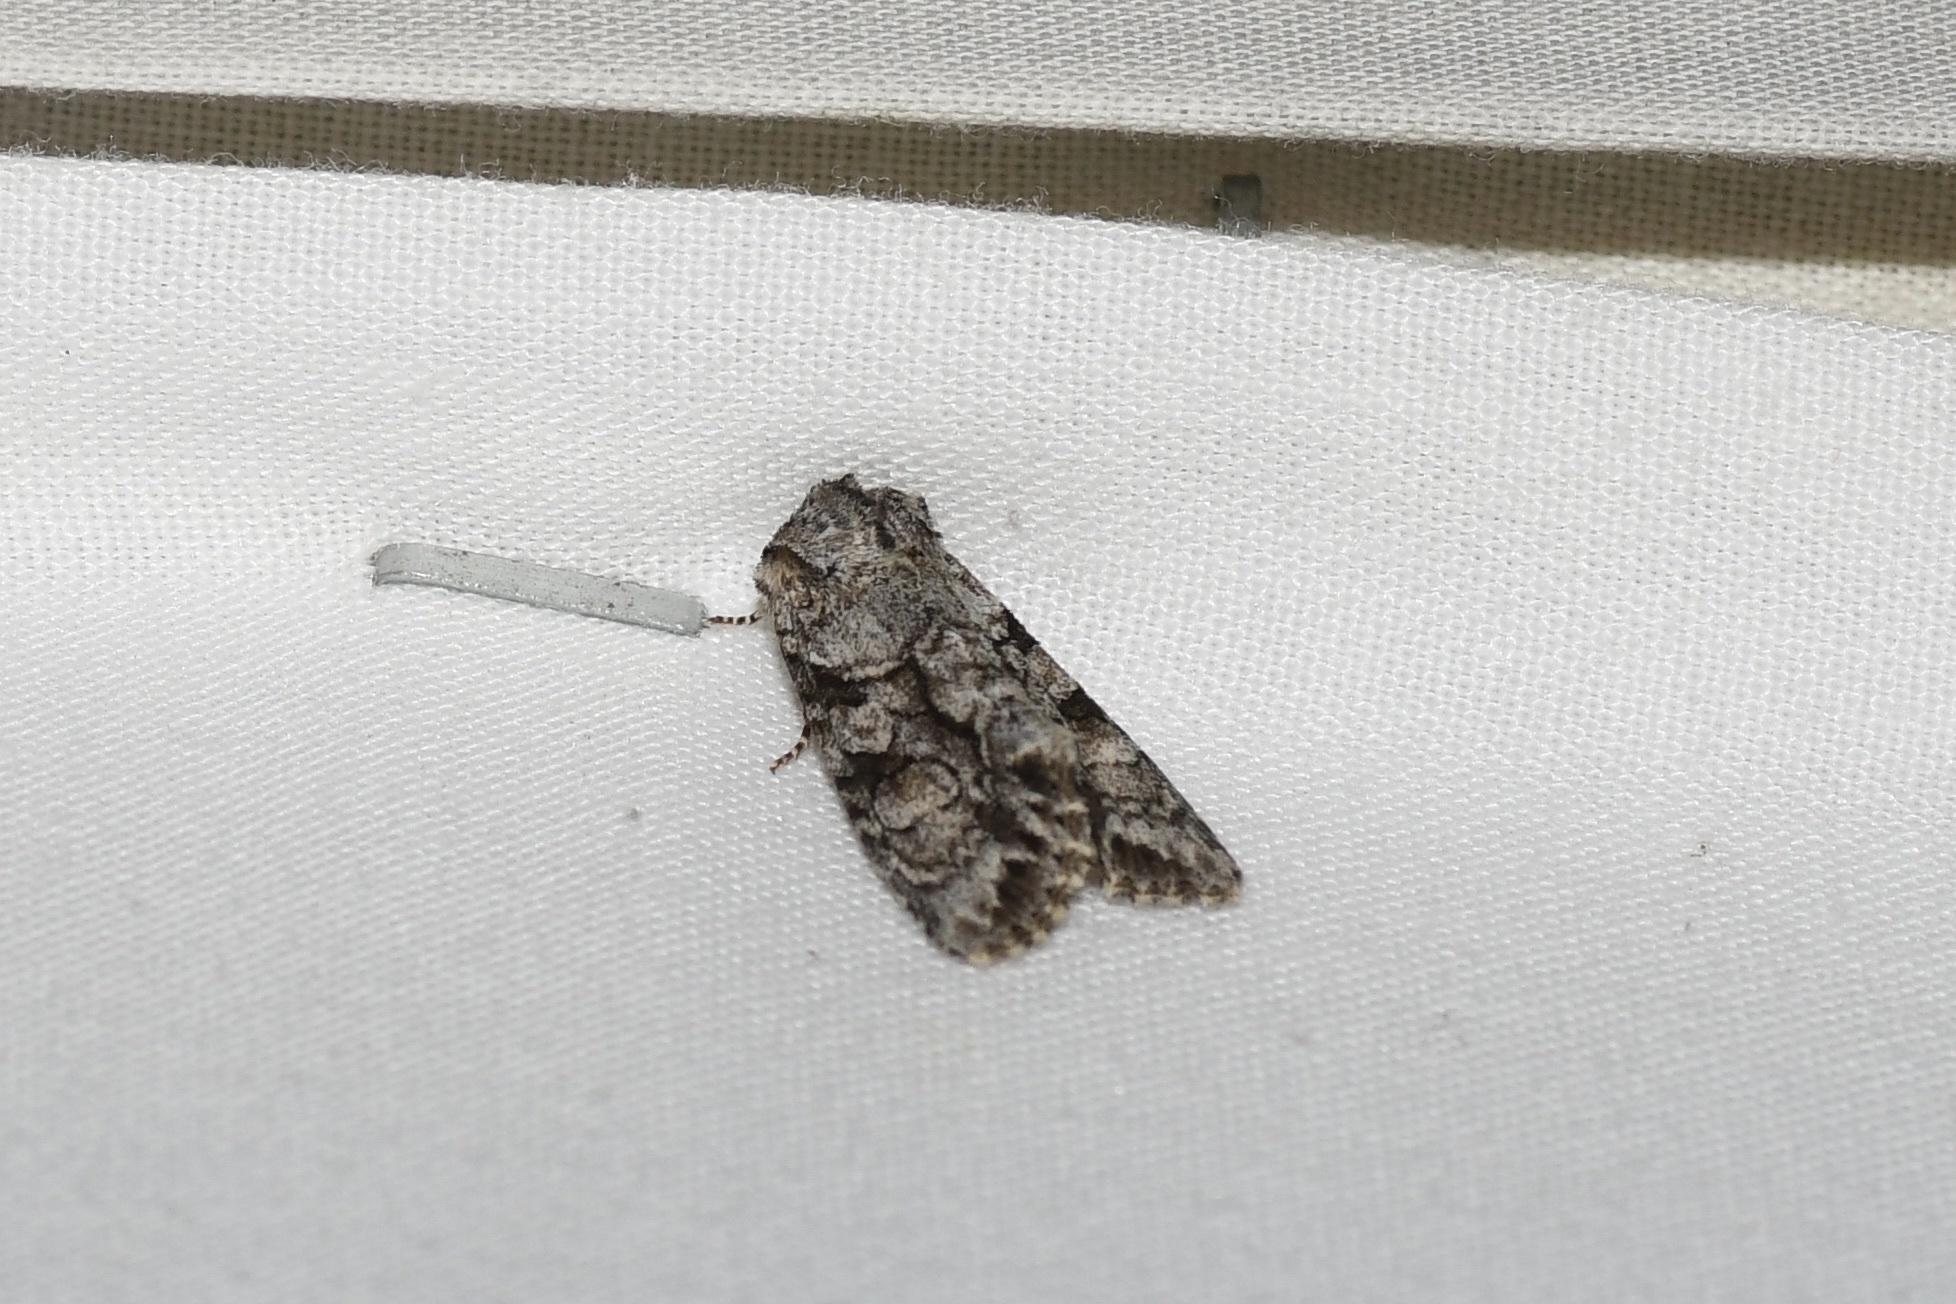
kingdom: Animalia
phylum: Arthropoda
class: Insecta
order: Lepidoptera
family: Noctuidae
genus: Achatia
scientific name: Achatia distincta
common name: Distinct quaker
